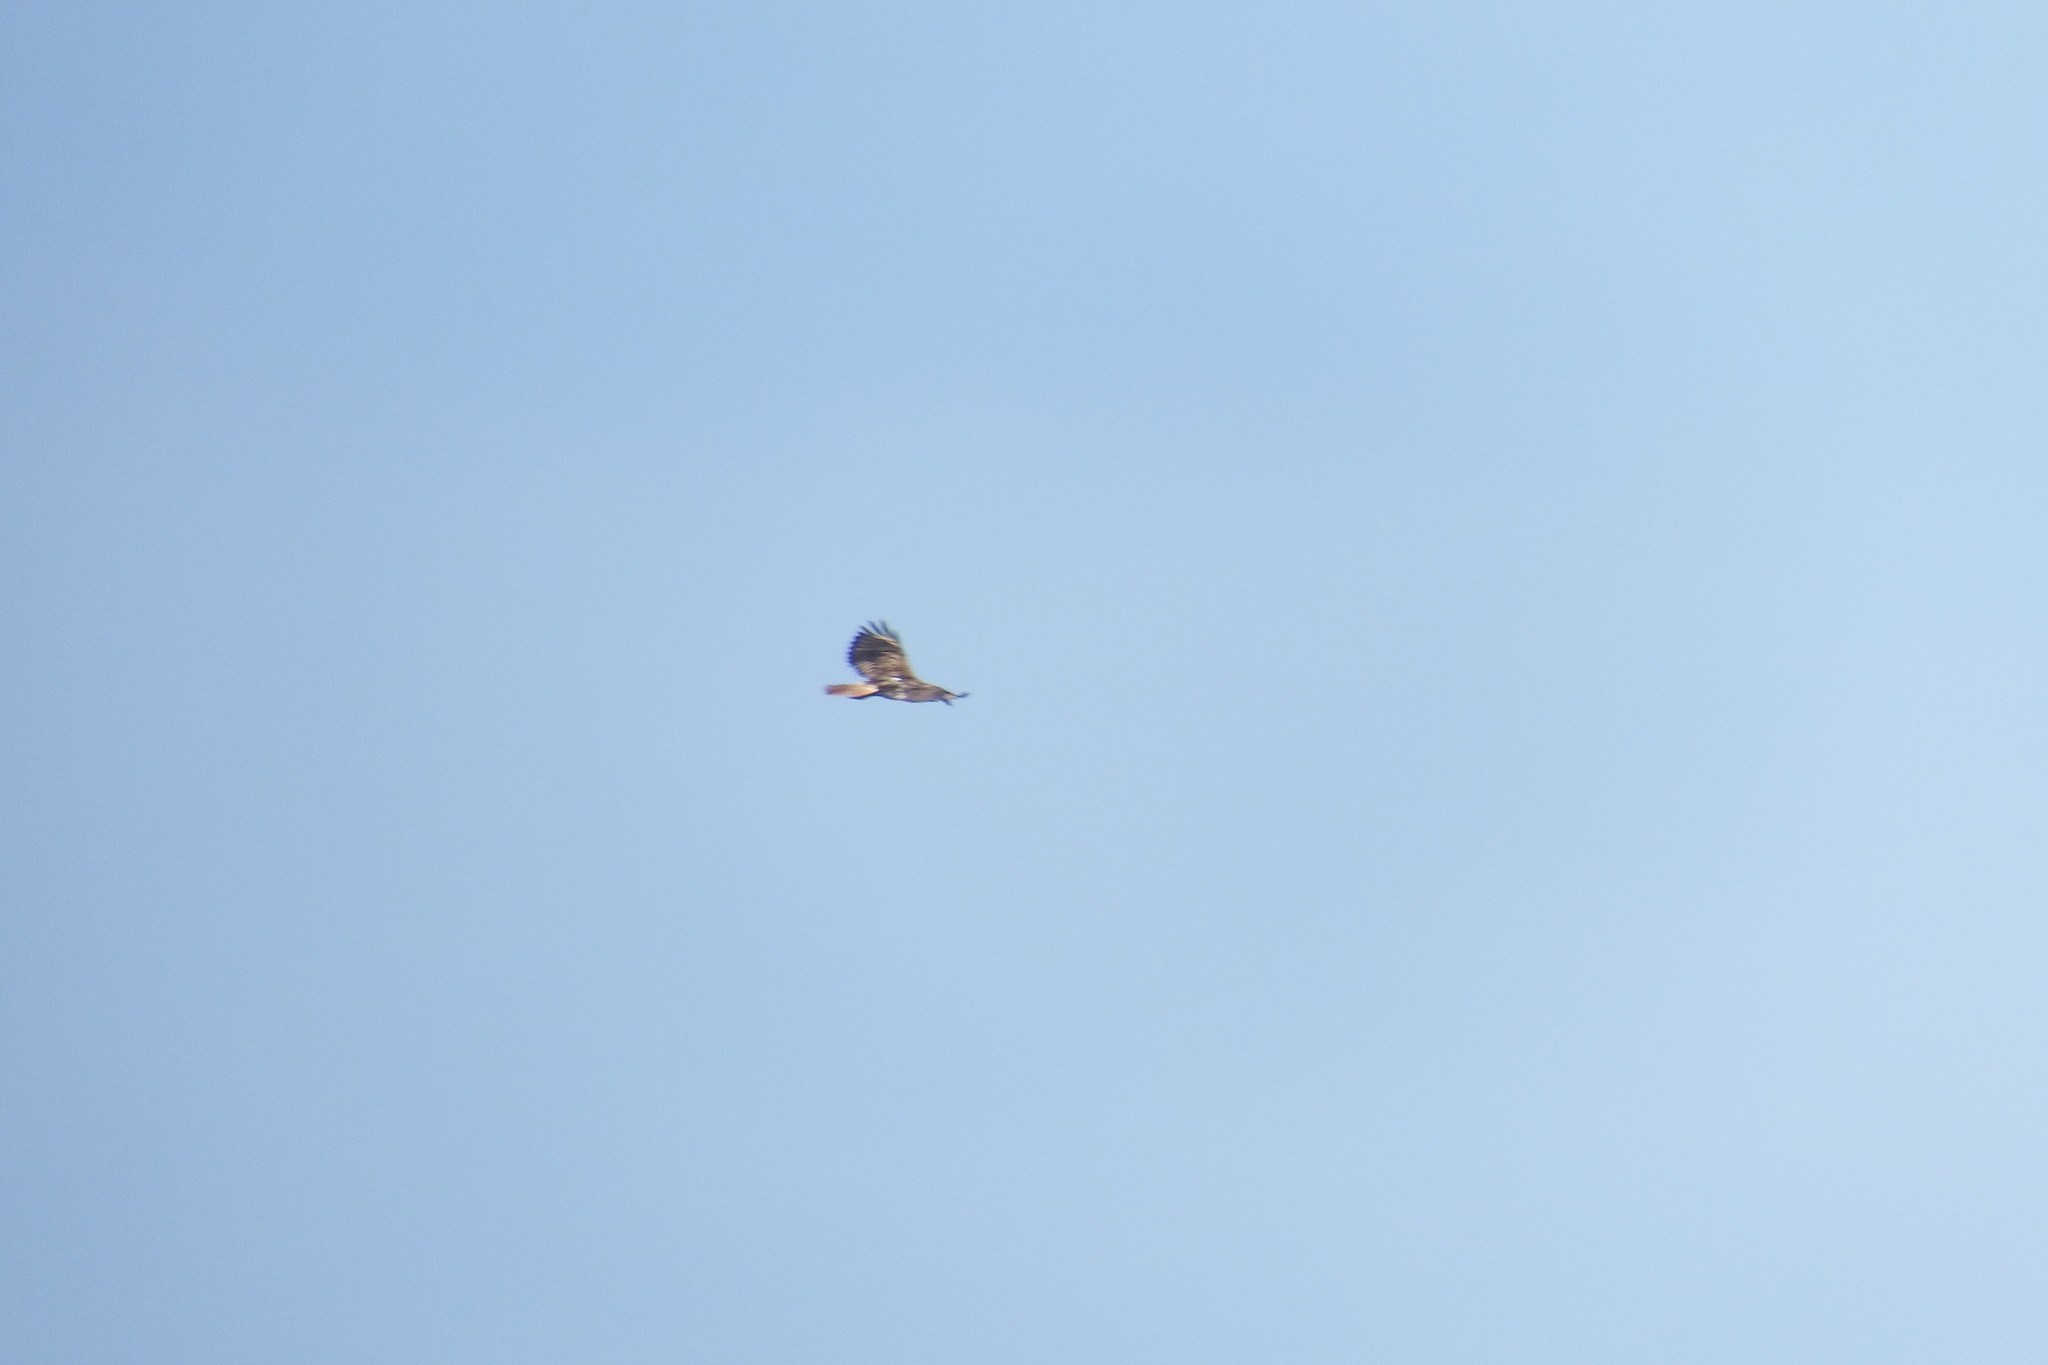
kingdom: Animalia
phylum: Chordata
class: Aves
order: Accipitriformes
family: Accipitridae
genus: Buteo
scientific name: Buteo jamaicensis
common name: Red-tailed hawk
